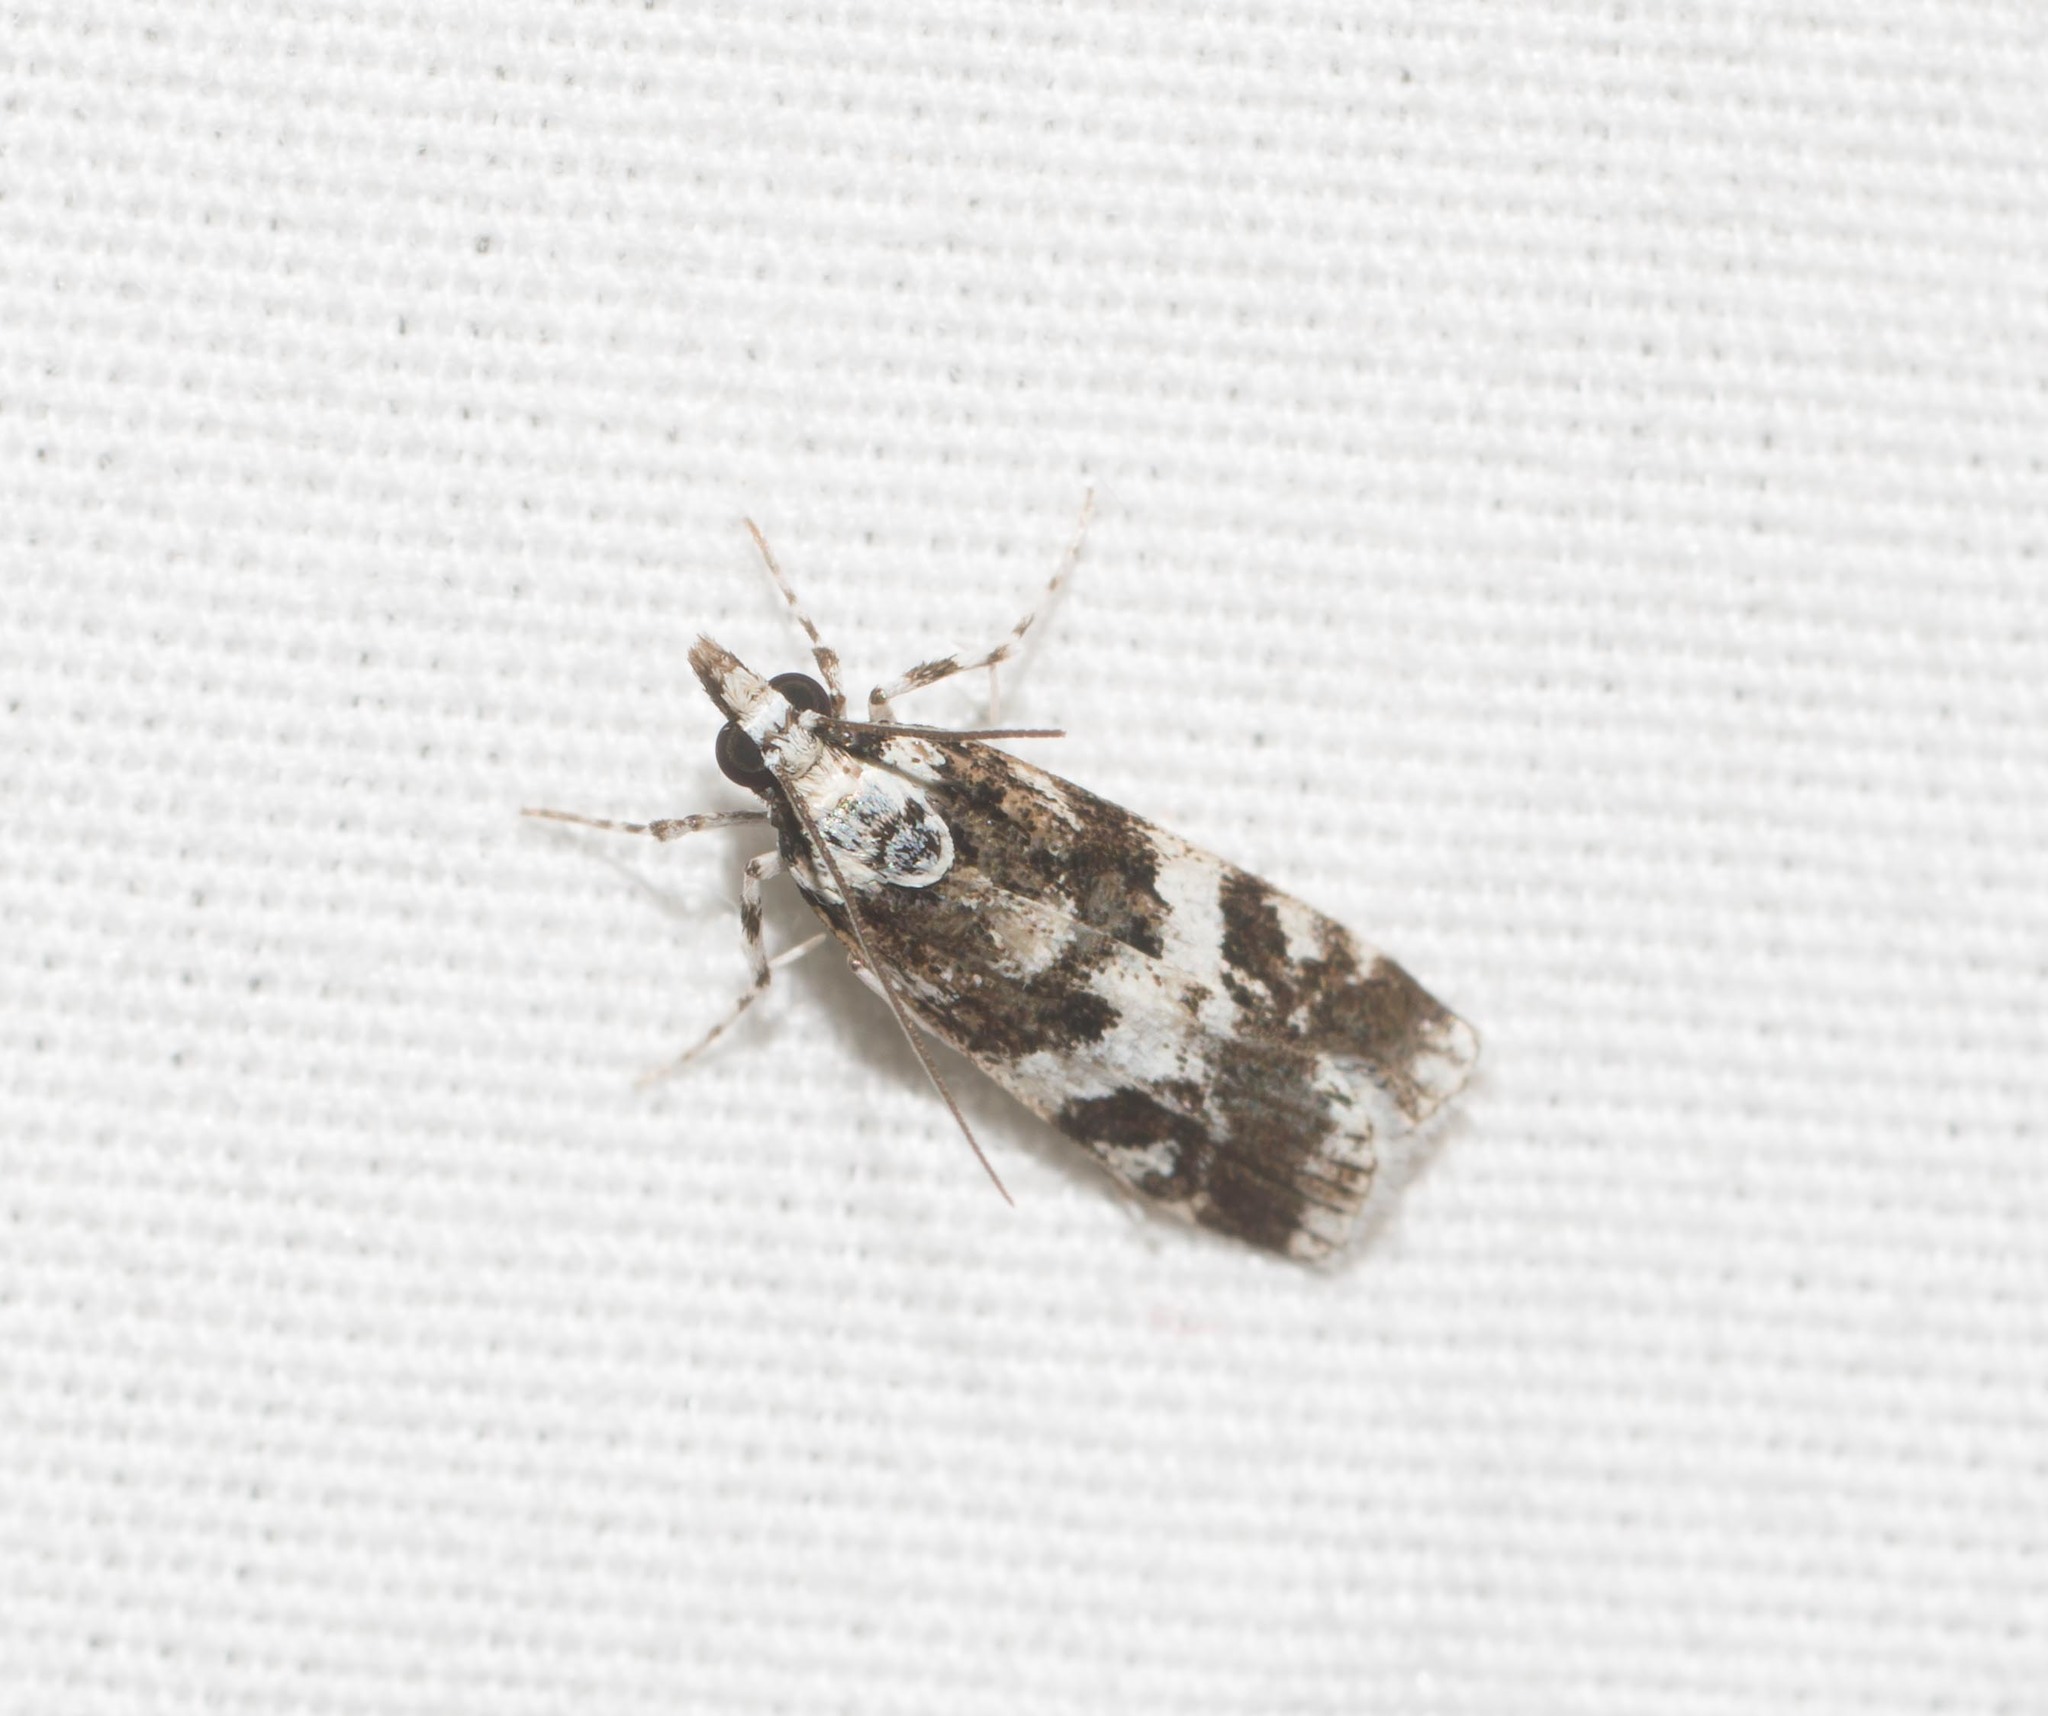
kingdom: Animalia
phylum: Arthropoda
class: Insecta
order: Lepidoptera
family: Crambidae
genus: Eudonia
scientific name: Eudonia mesoleuca
